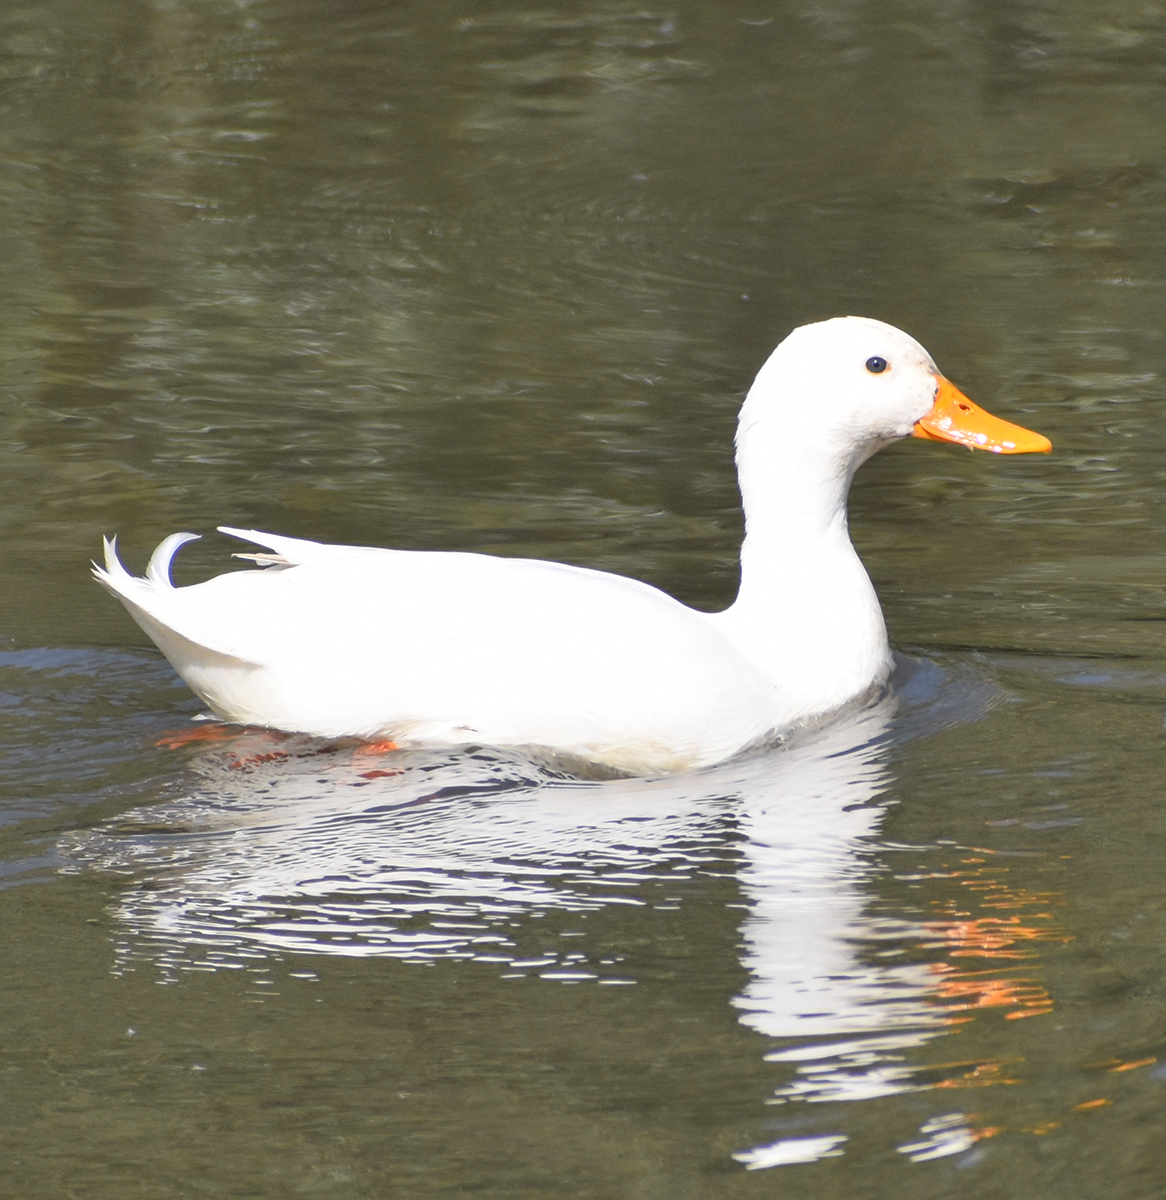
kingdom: Animalia
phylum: Chordata
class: Aves
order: Anseriformes
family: Anatidae
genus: Anas
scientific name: Anas platyrhynchos
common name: Mallard
